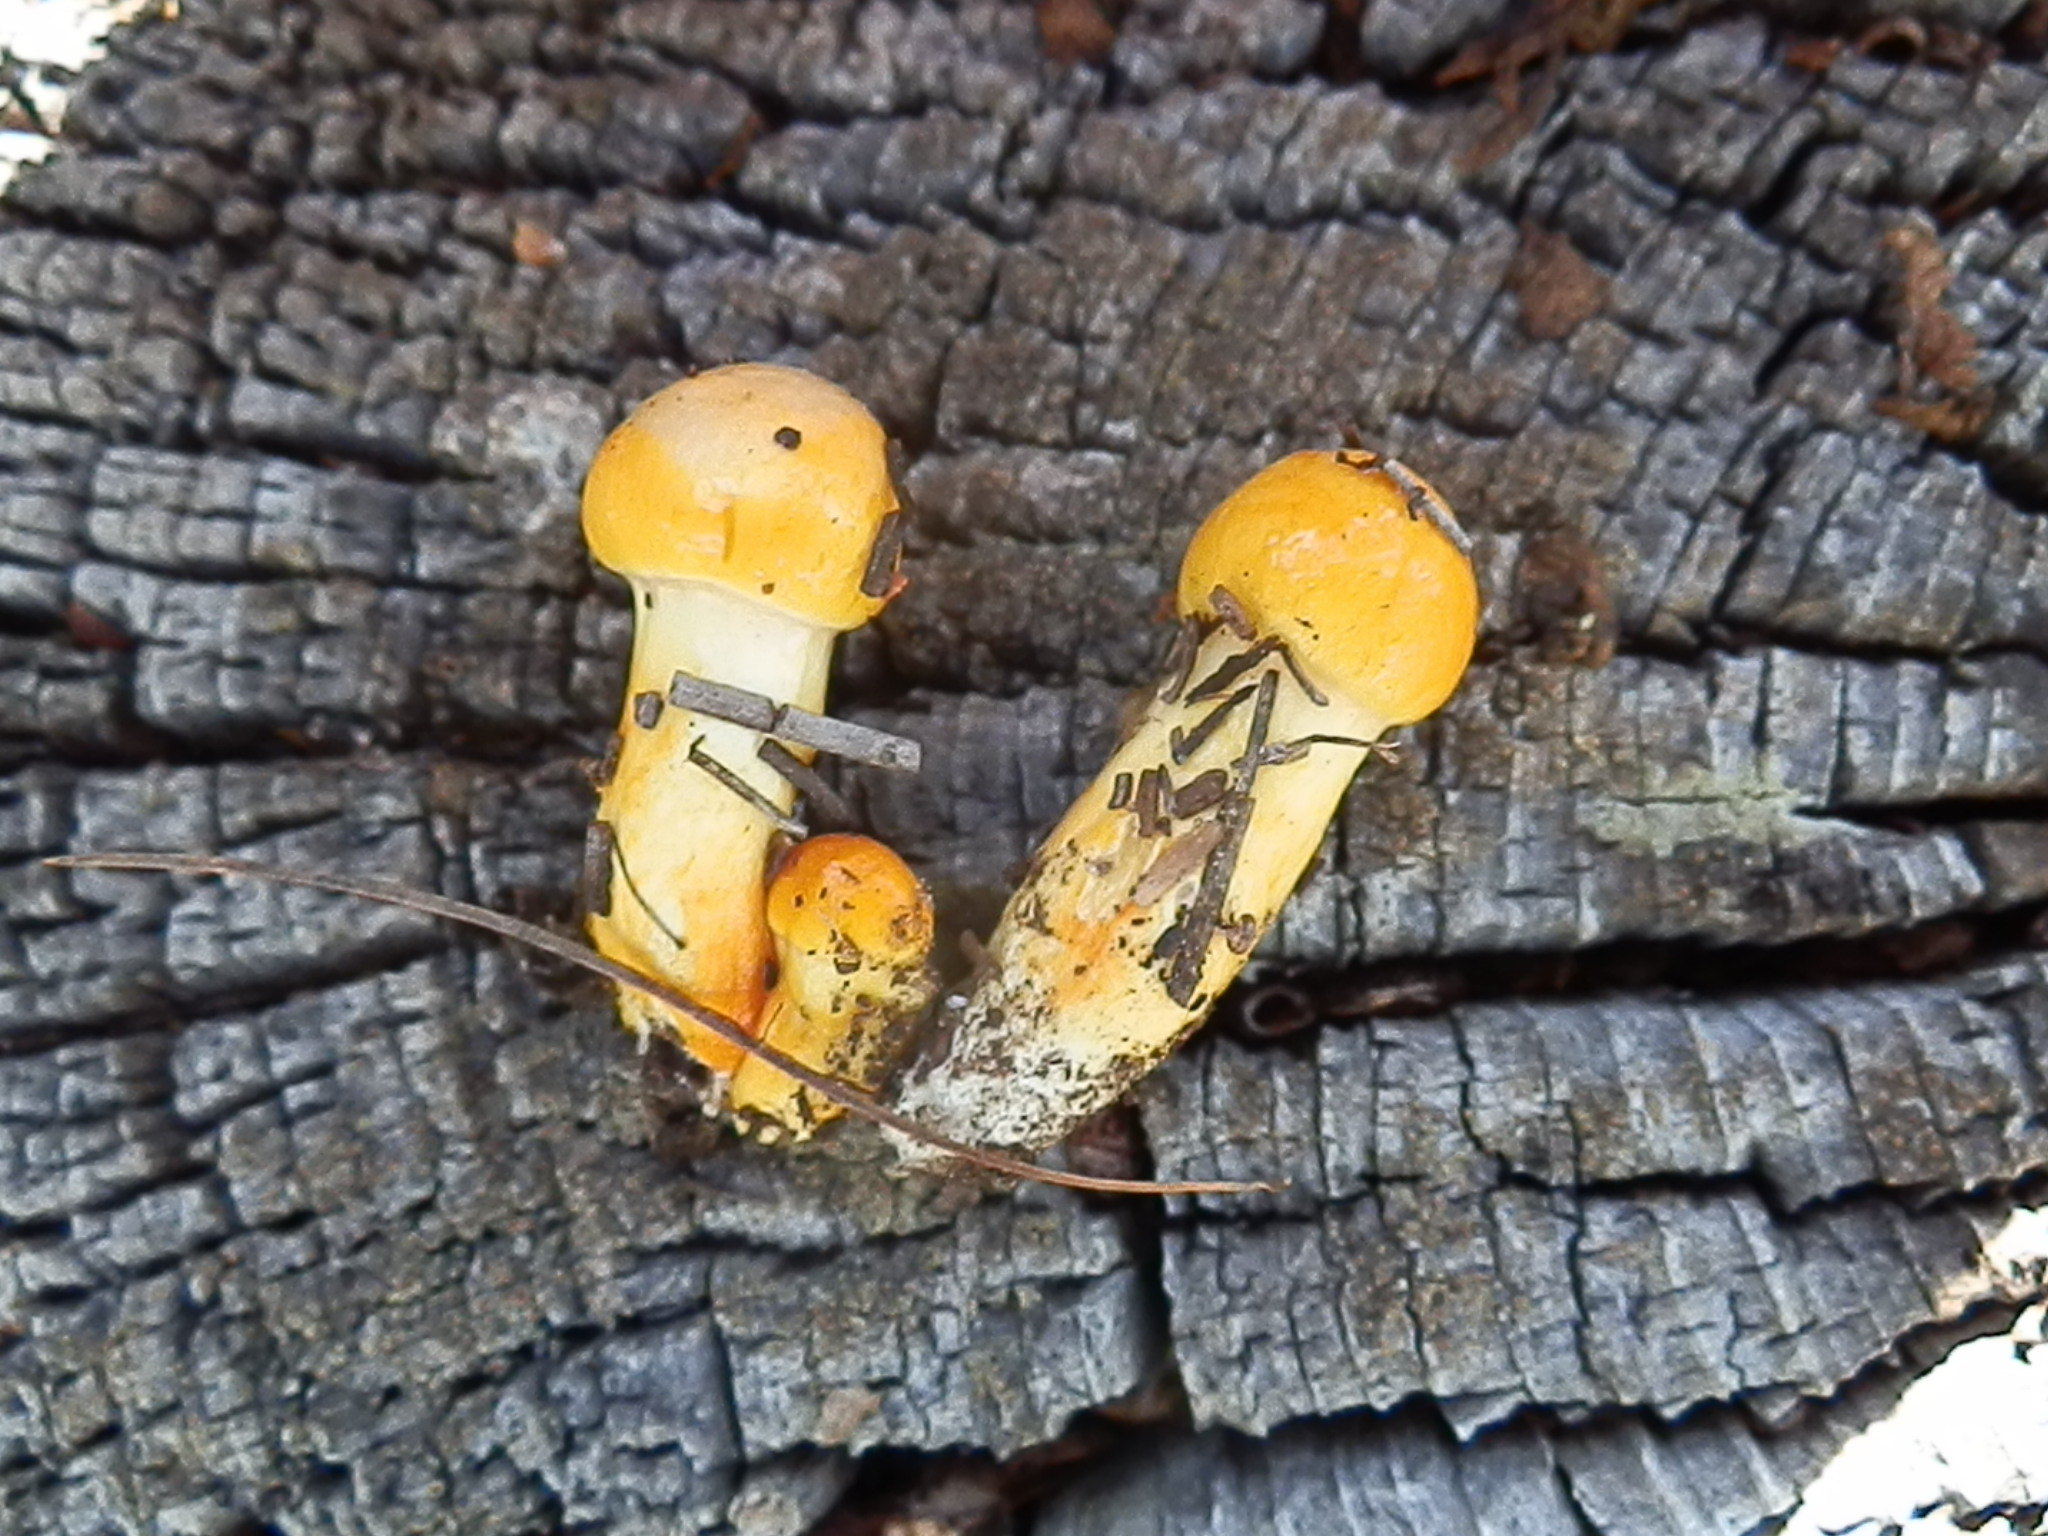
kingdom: Fungi
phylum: Basidiomycota
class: Agaricomycetes
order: Agaricales
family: Hygrophoraceae
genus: Hygrophorus
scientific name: Hygrophorus siccipes
